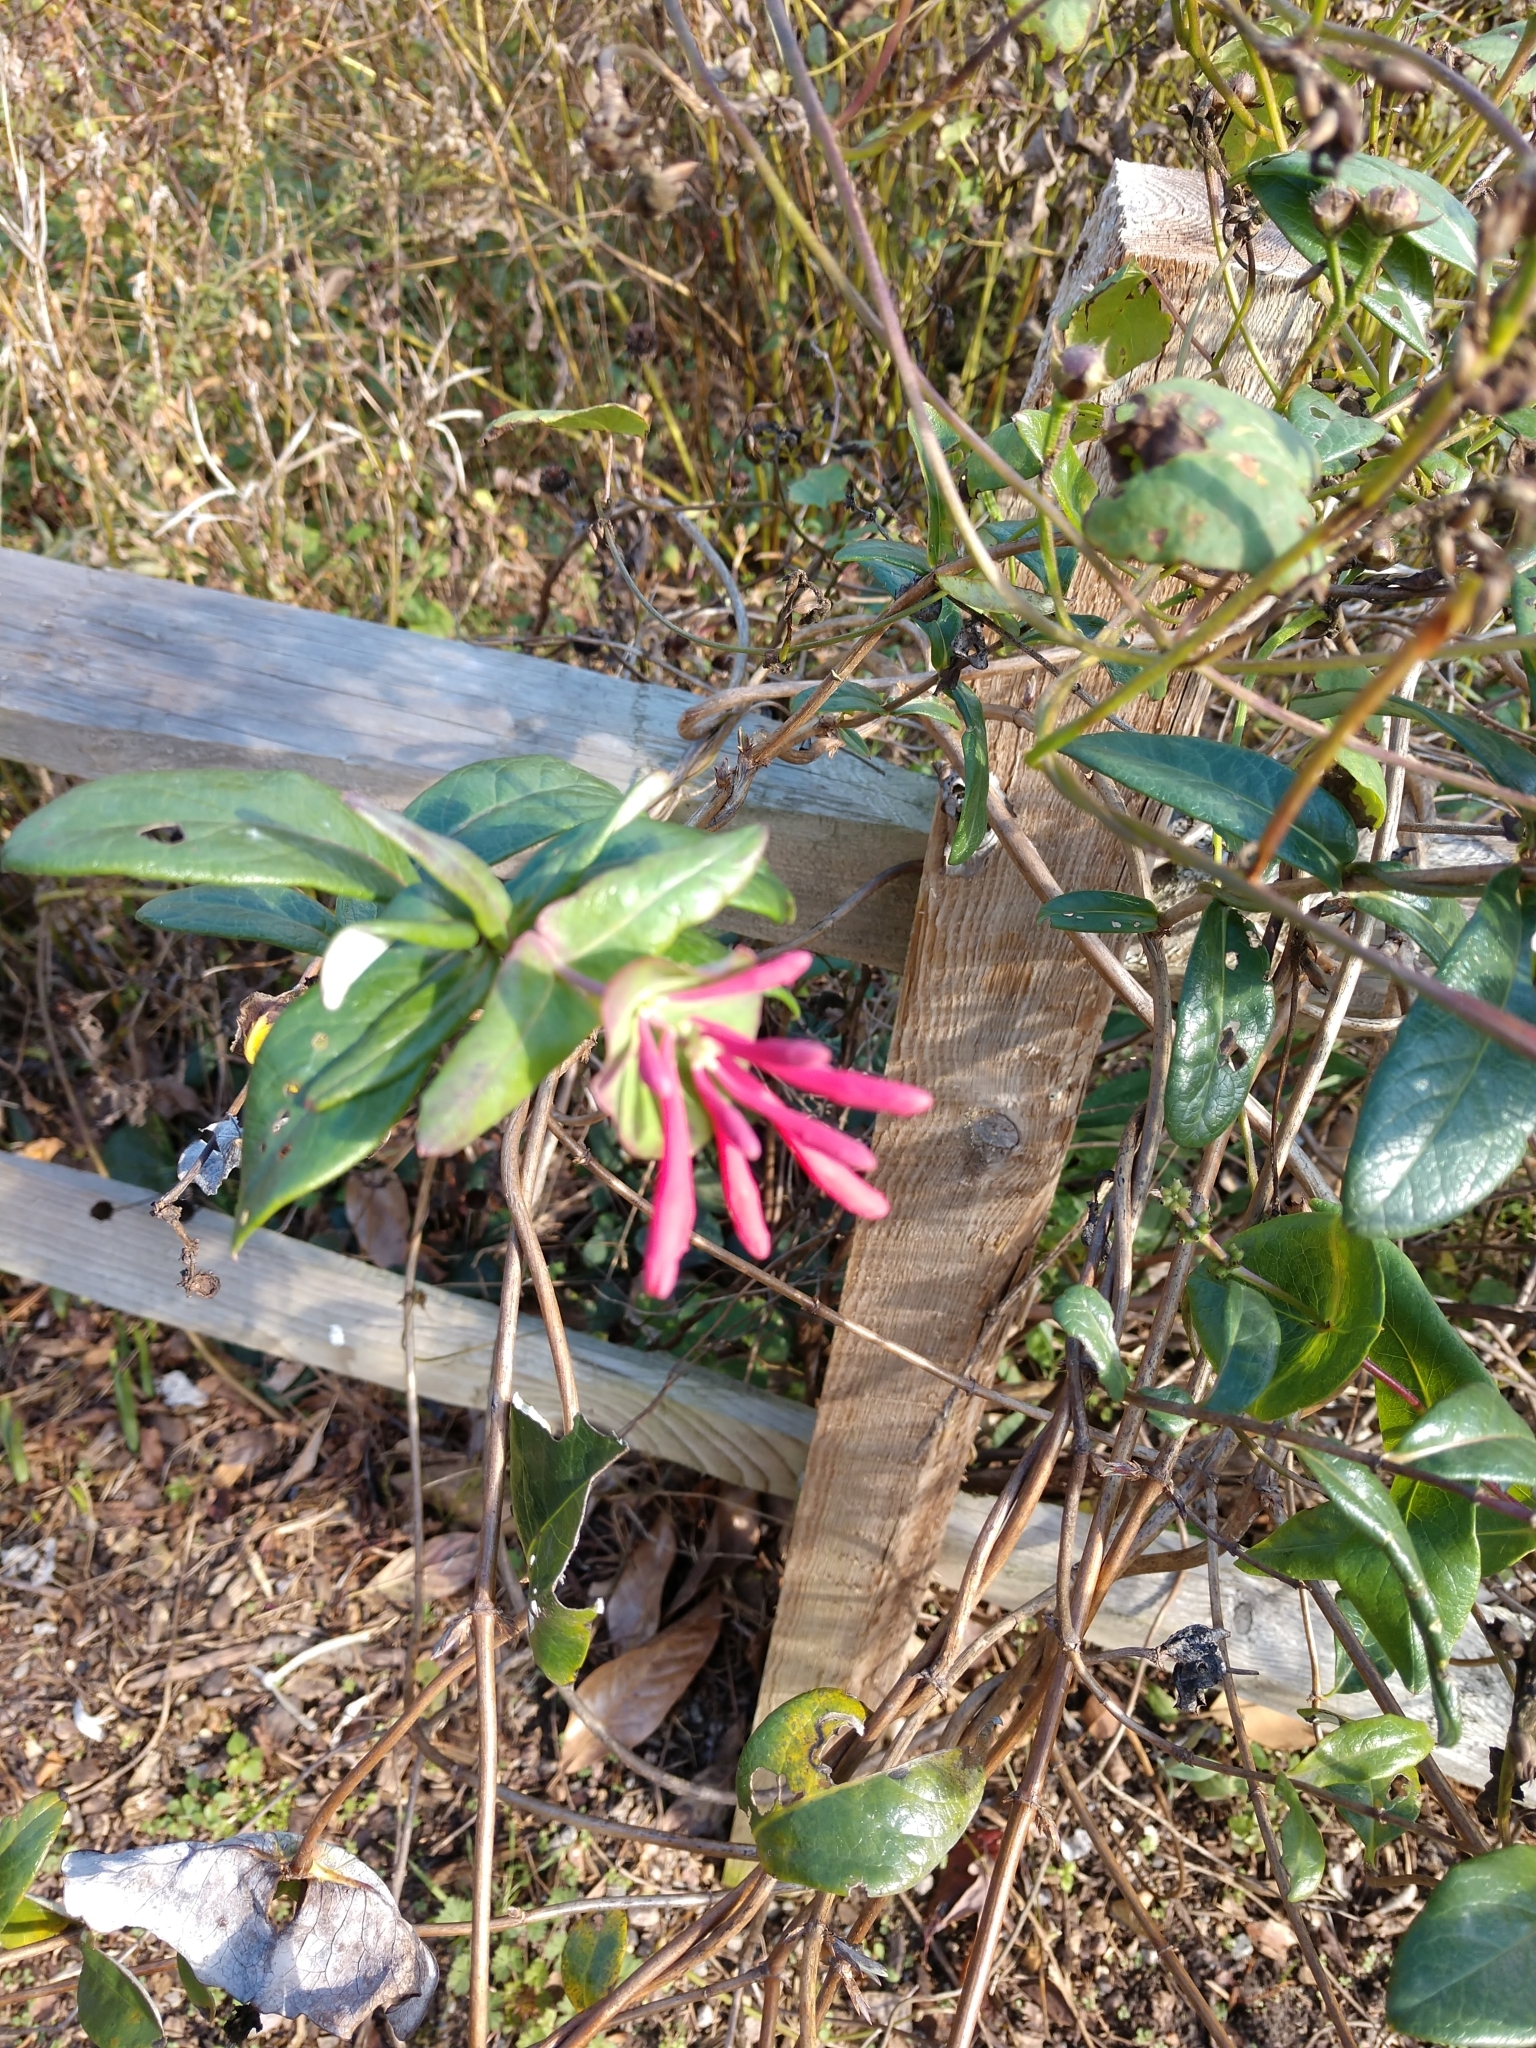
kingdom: Plantae
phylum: Tracheophyta
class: Magnoliopsida
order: Dipsacales
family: Caprifoliaceae
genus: Lonicera
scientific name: Lonicera sempervirens
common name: Coral honeysuckle
